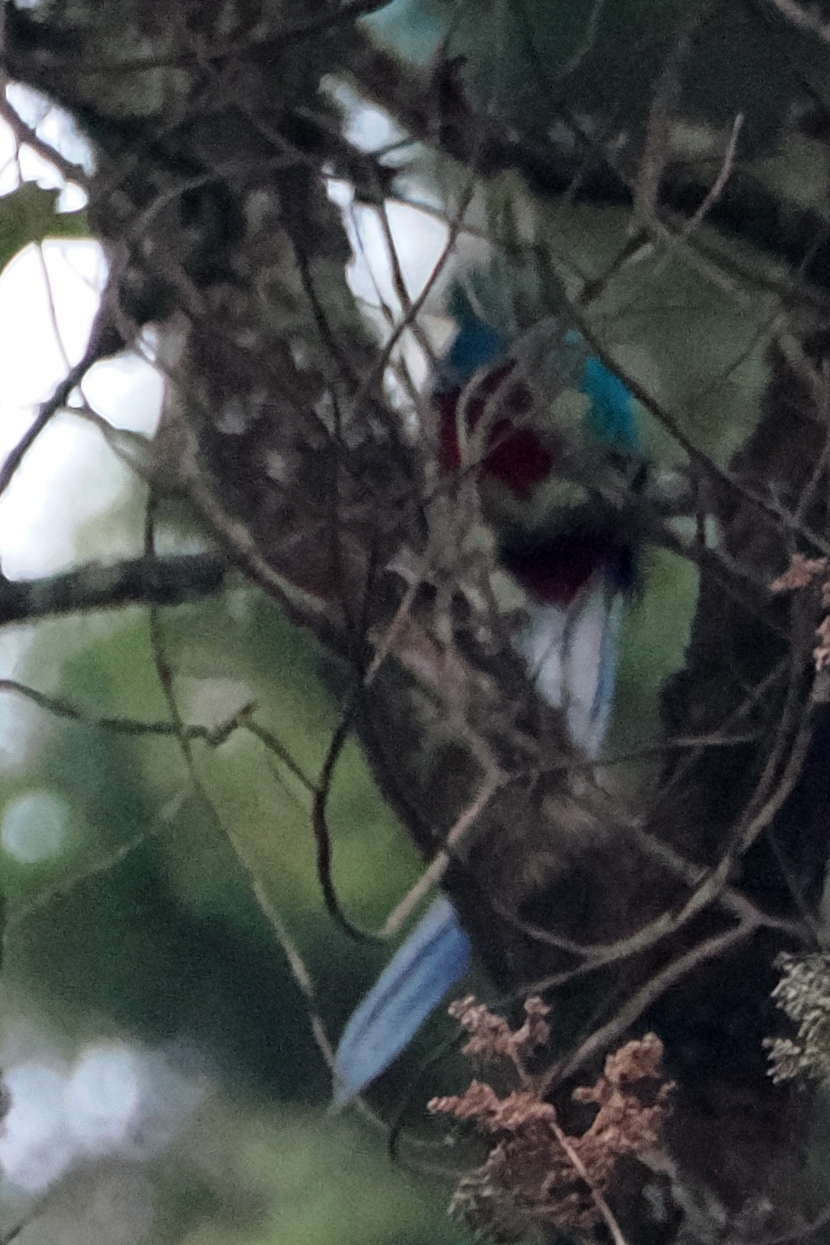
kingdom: Animalia
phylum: Chordata
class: Aves
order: Trogoniformes
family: Trogonidae
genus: Pharomachrus
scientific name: Pharomachrus mocinno
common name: Resplendent quetzal
